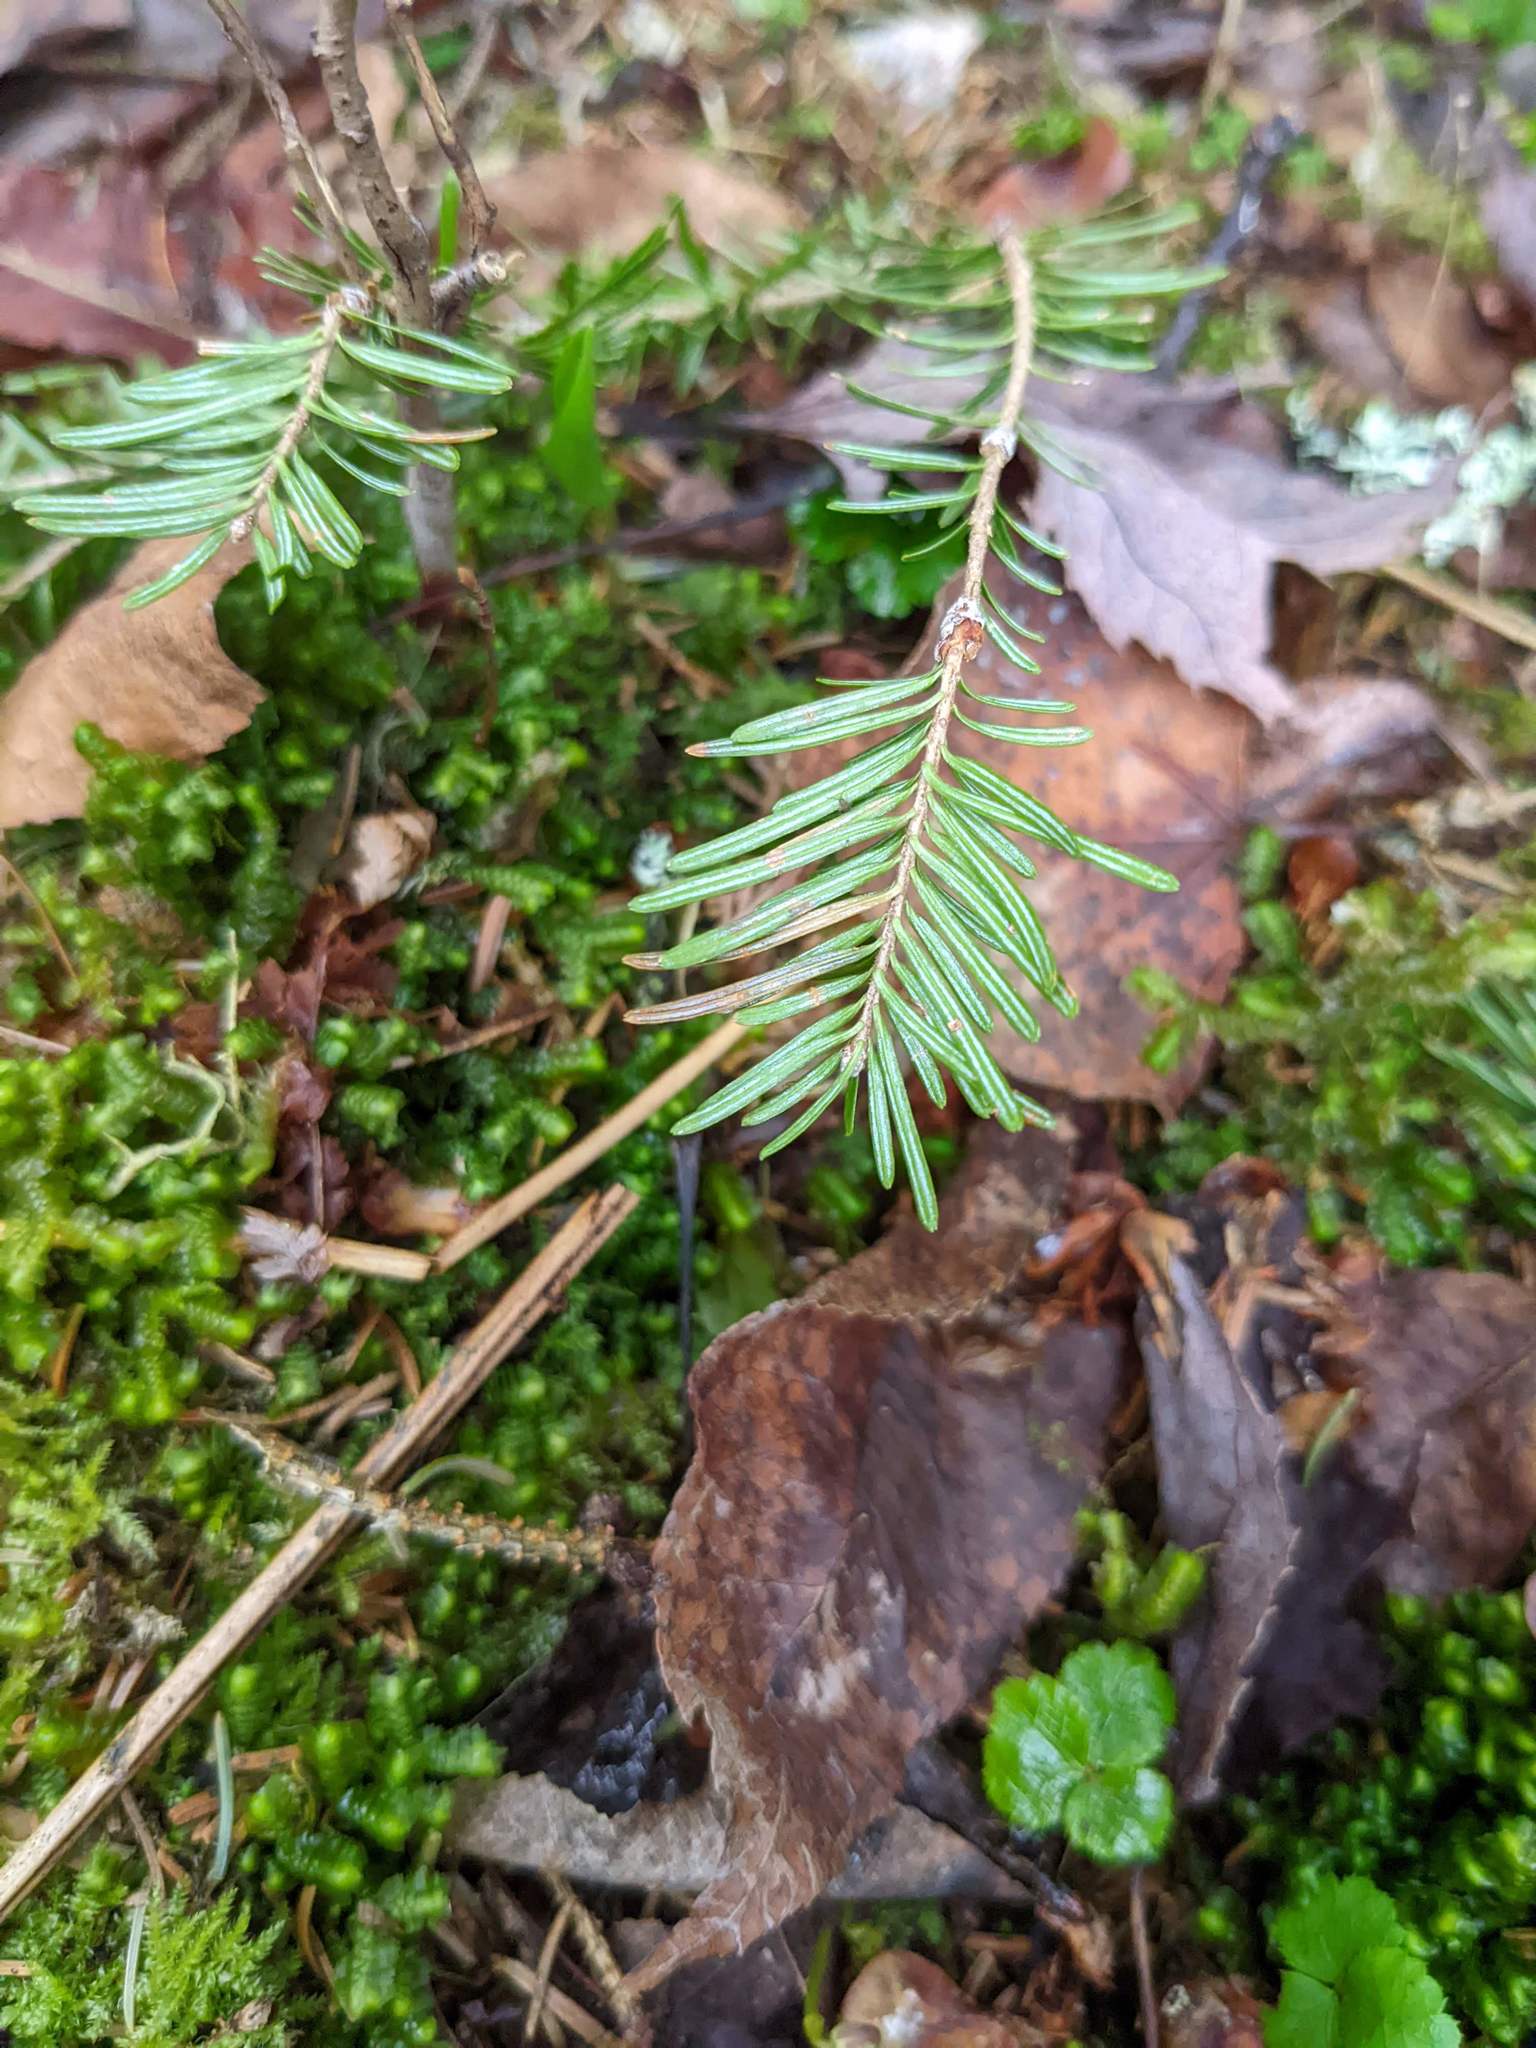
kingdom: Plantae
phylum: Tracheophyta
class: Pinopsida
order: Pinales
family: Pinaceae
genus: Abies
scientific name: Abies balsamea
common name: Balsam fir
